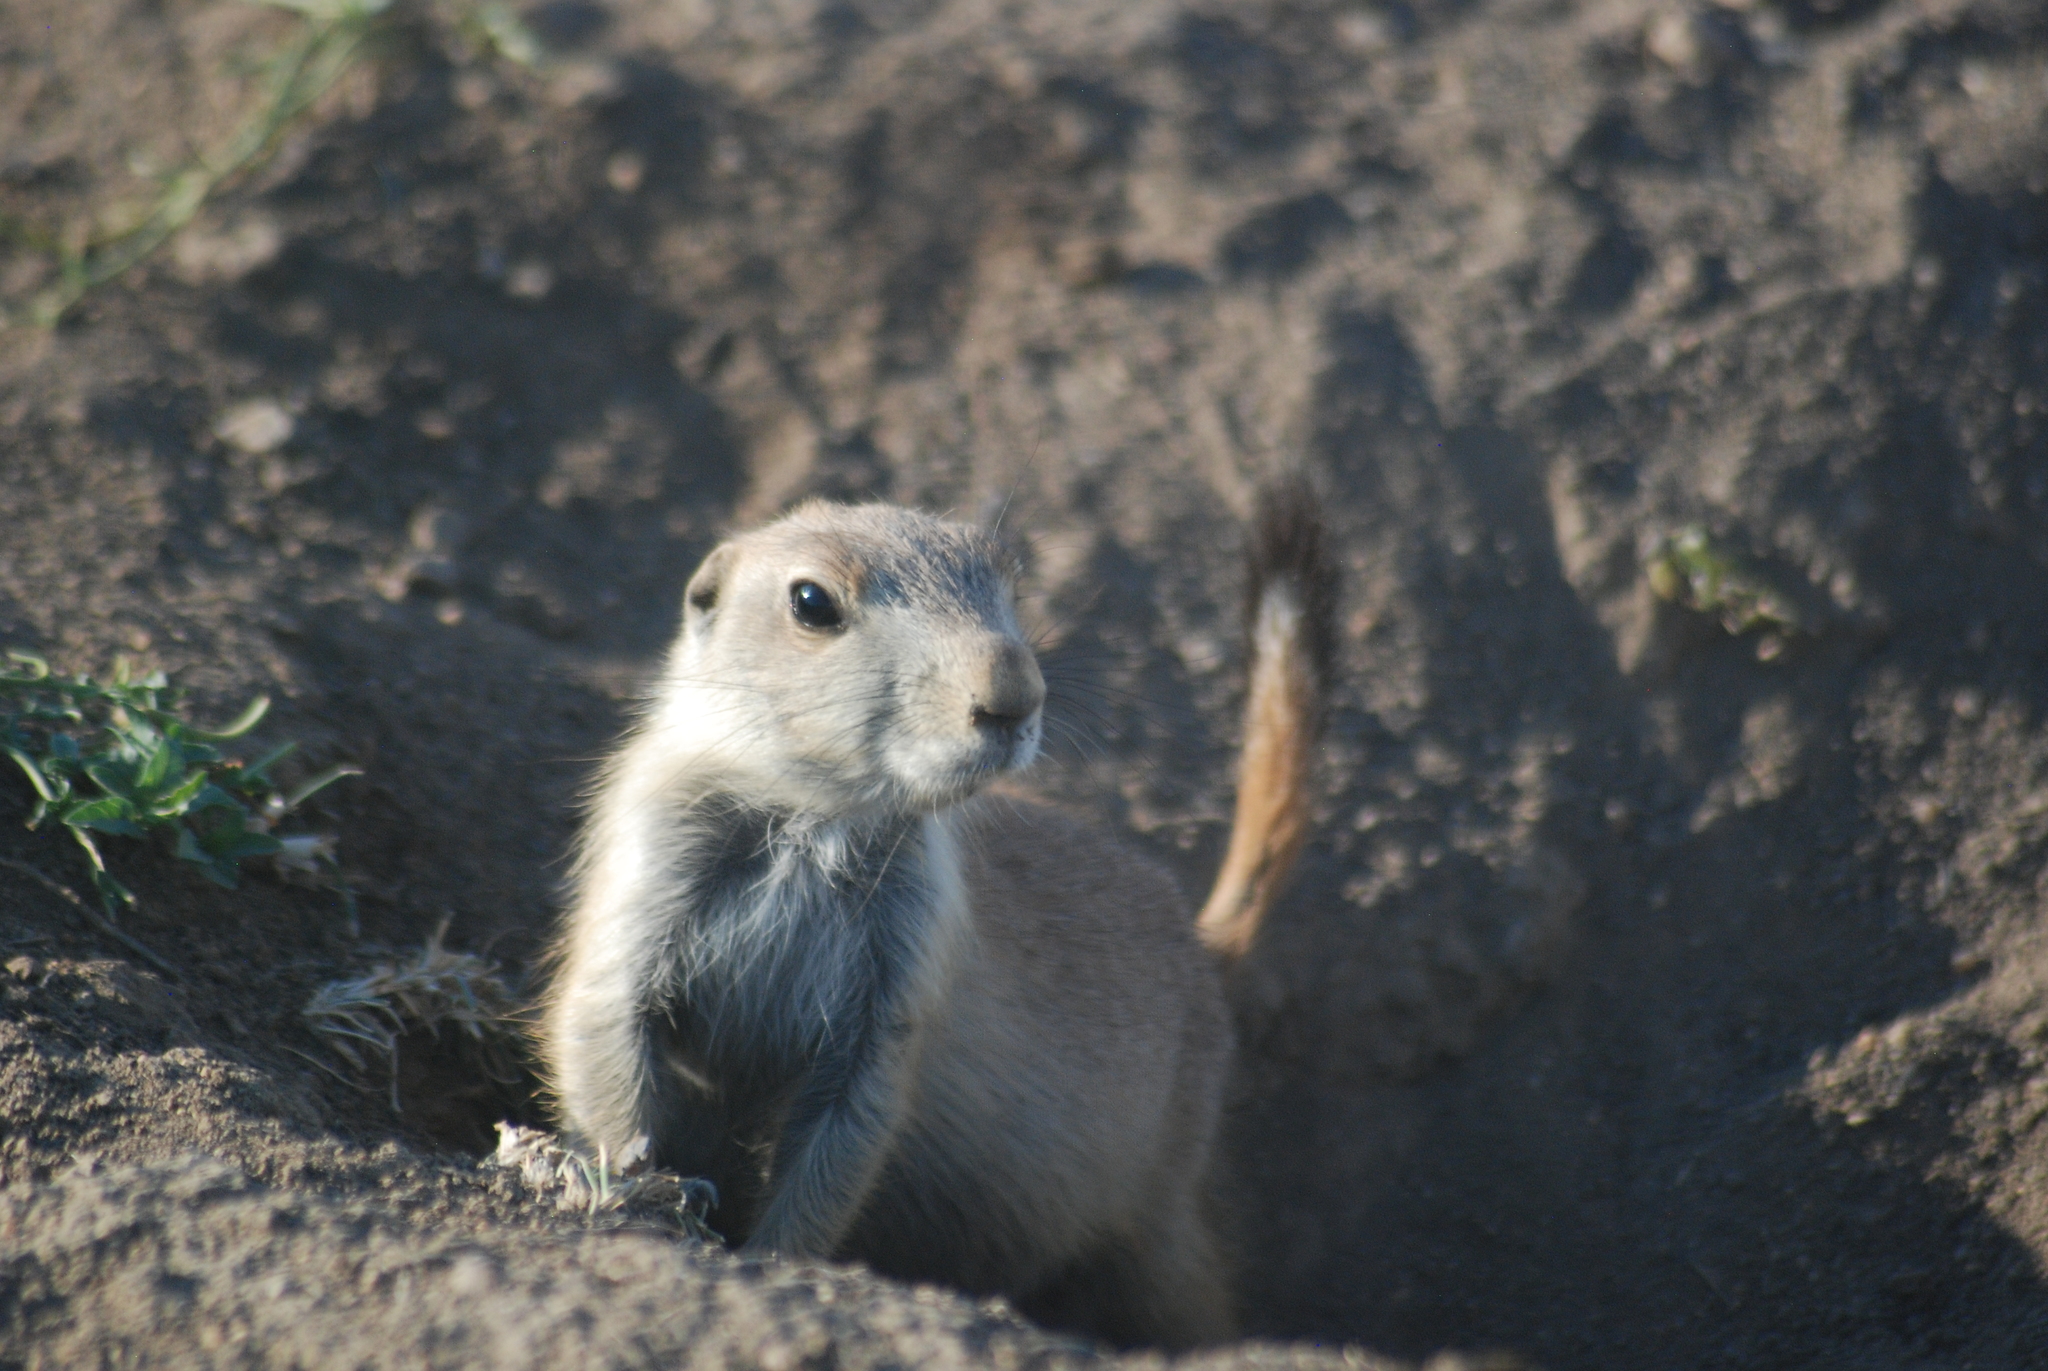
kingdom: Animalia
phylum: Chordata
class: Mammalia
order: Rodentia
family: Sciuridae
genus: Cynomys
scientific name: Cynomys ludovicianus
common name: Black-tailed prairie dog
